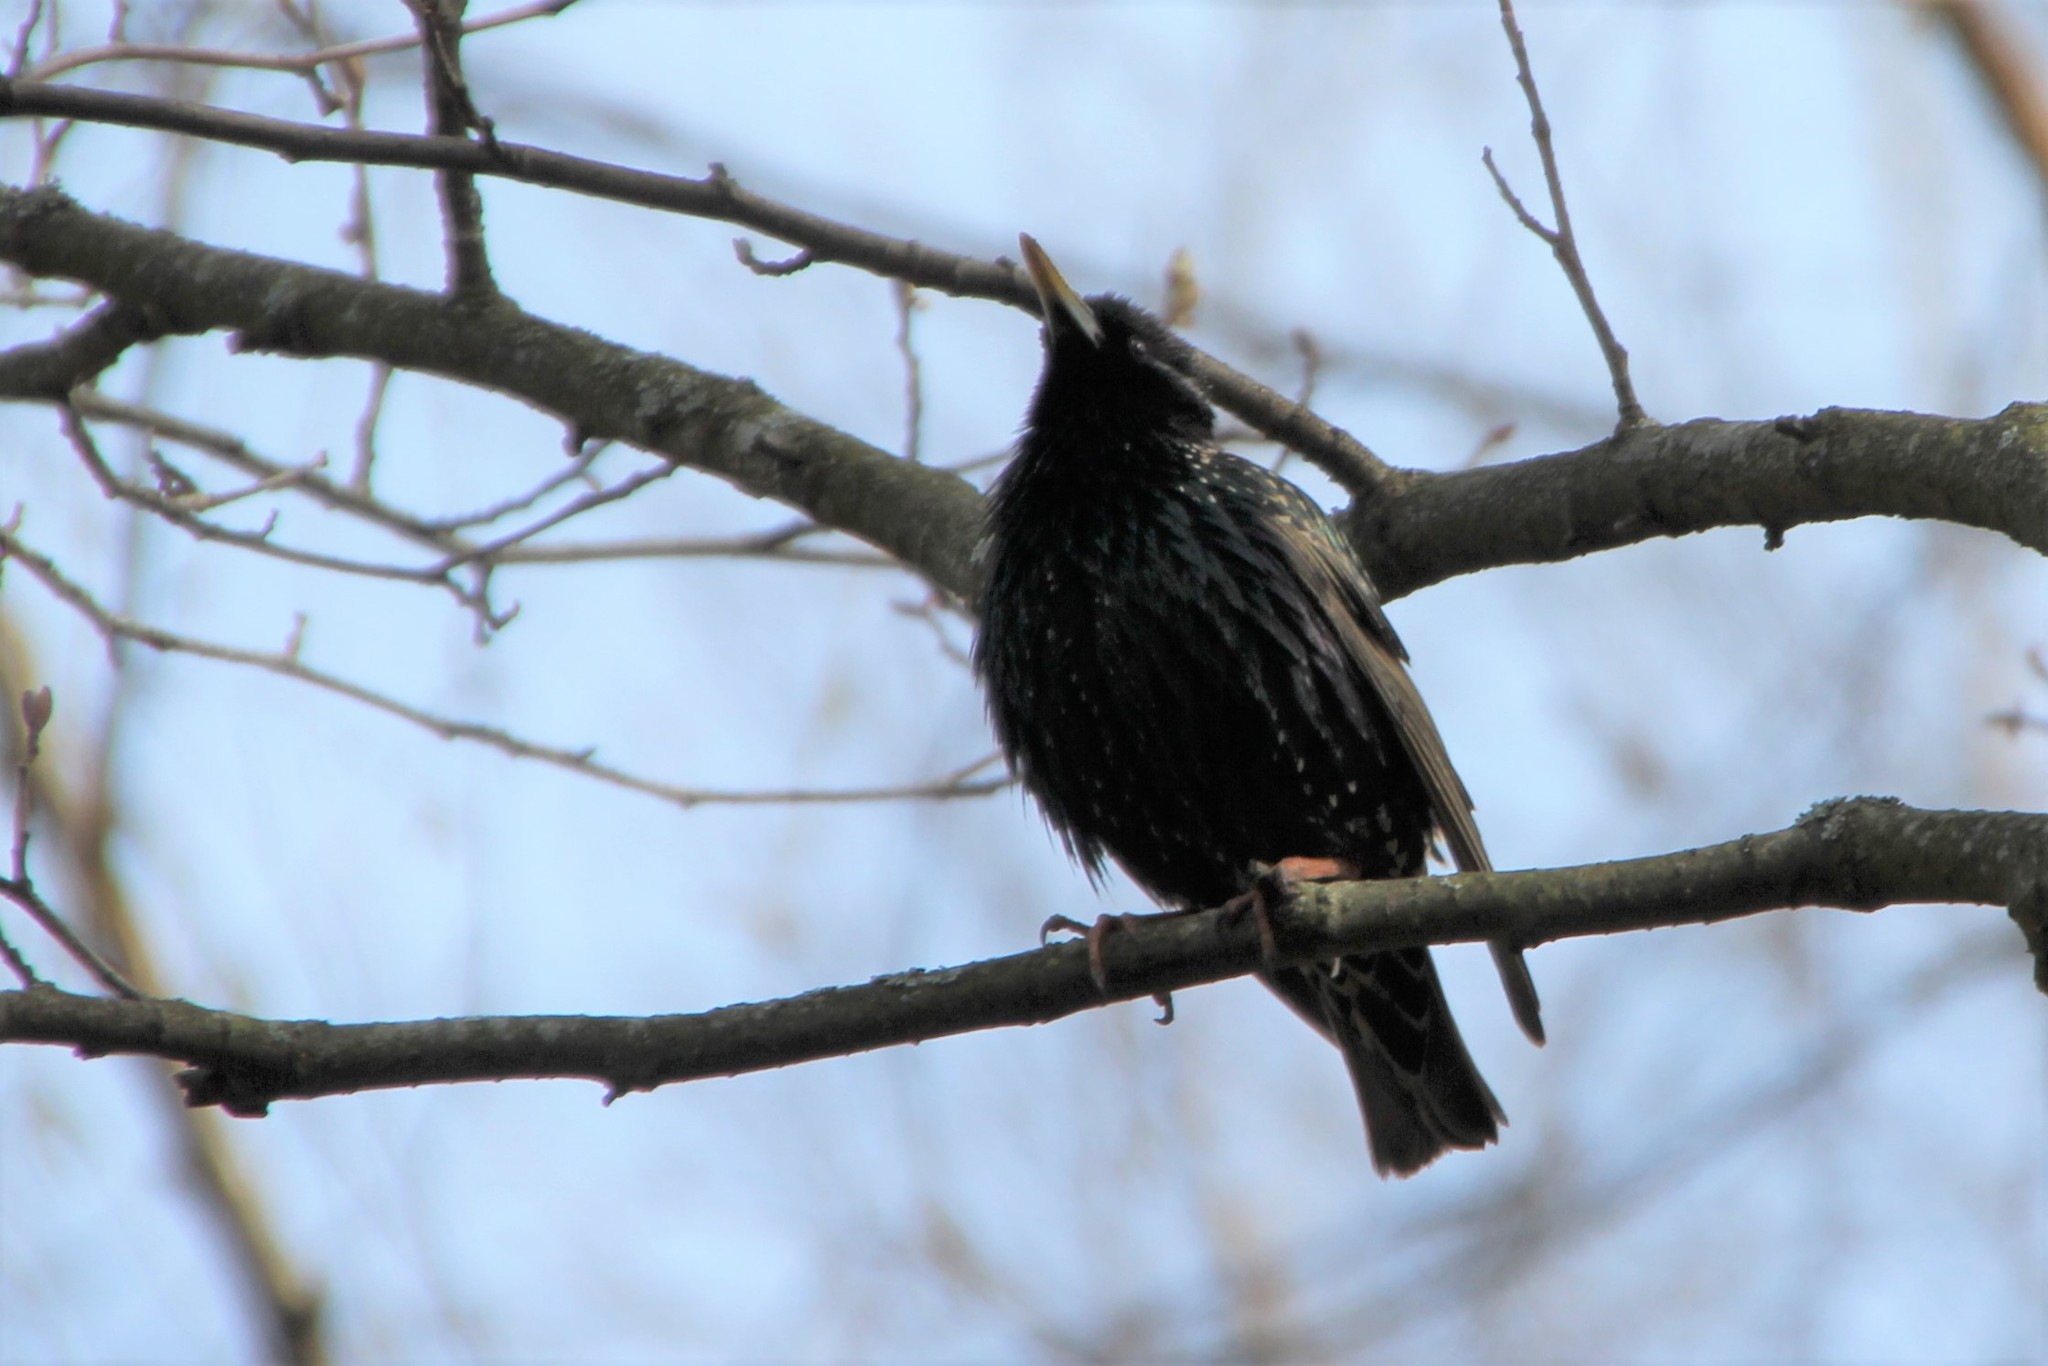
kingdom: Animalia
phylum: Chordata
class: Aves
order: Passeriformes
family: Sturnidae
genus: Sturnus
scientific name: Sturnus vulgaris
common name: Common starling
